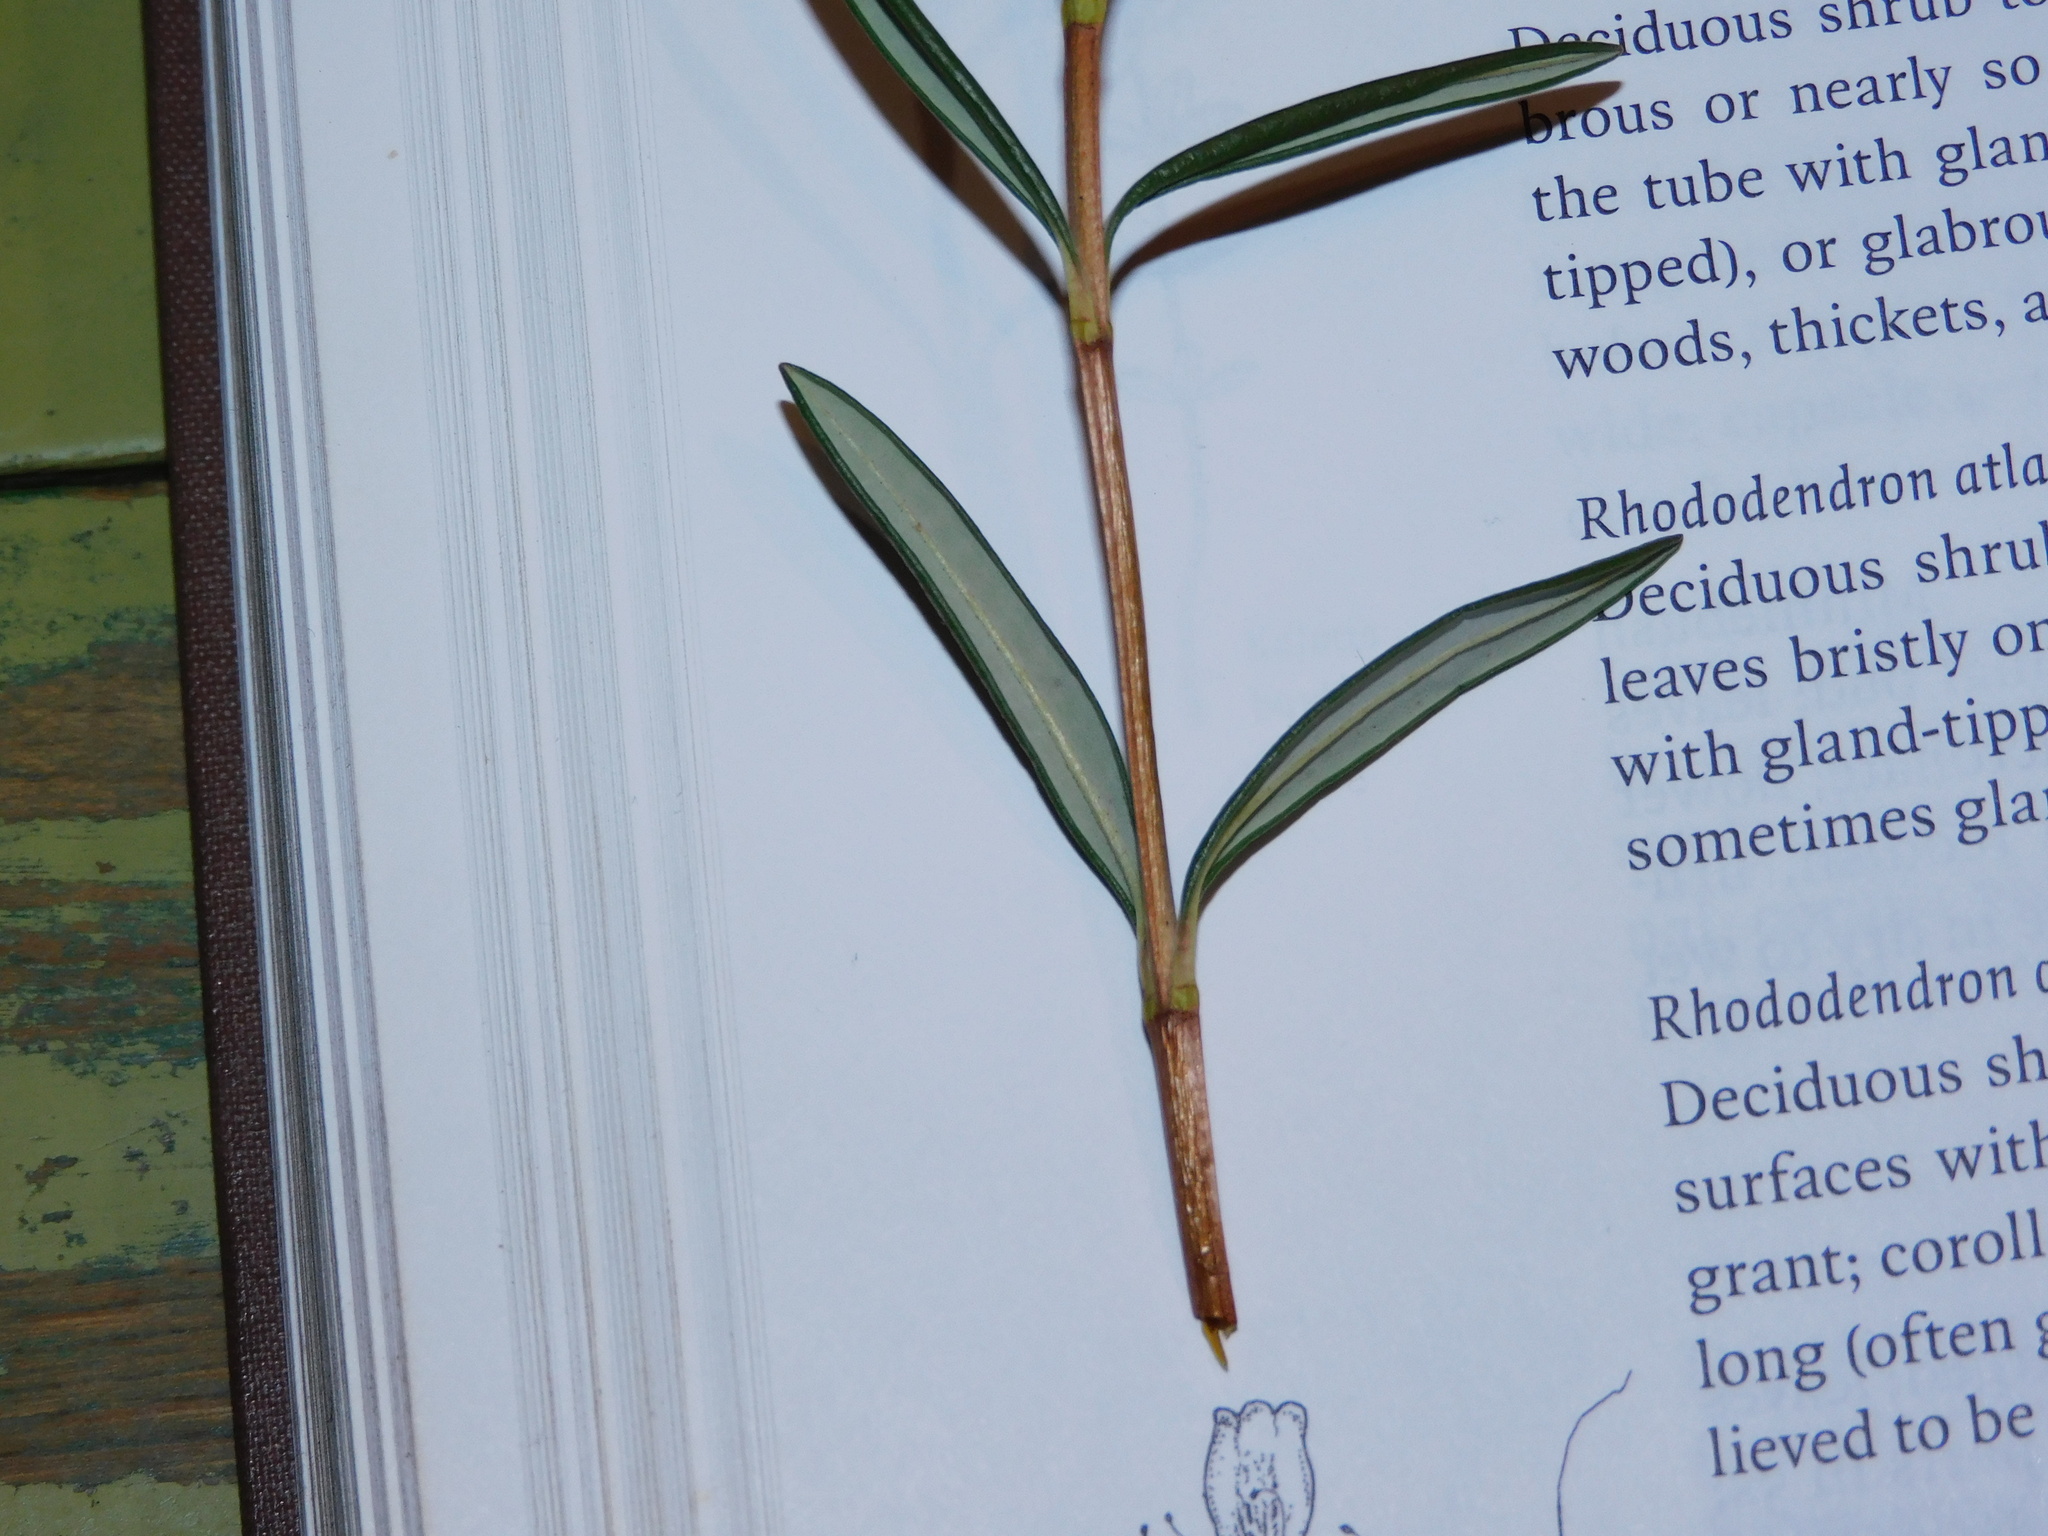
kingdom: Plantae
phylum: Tracheophyta
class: Magnoliopsida
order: Ericales
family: Ericaceae
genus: Kalmia
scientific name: Kalmia polifolia
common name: Bog-laurel
